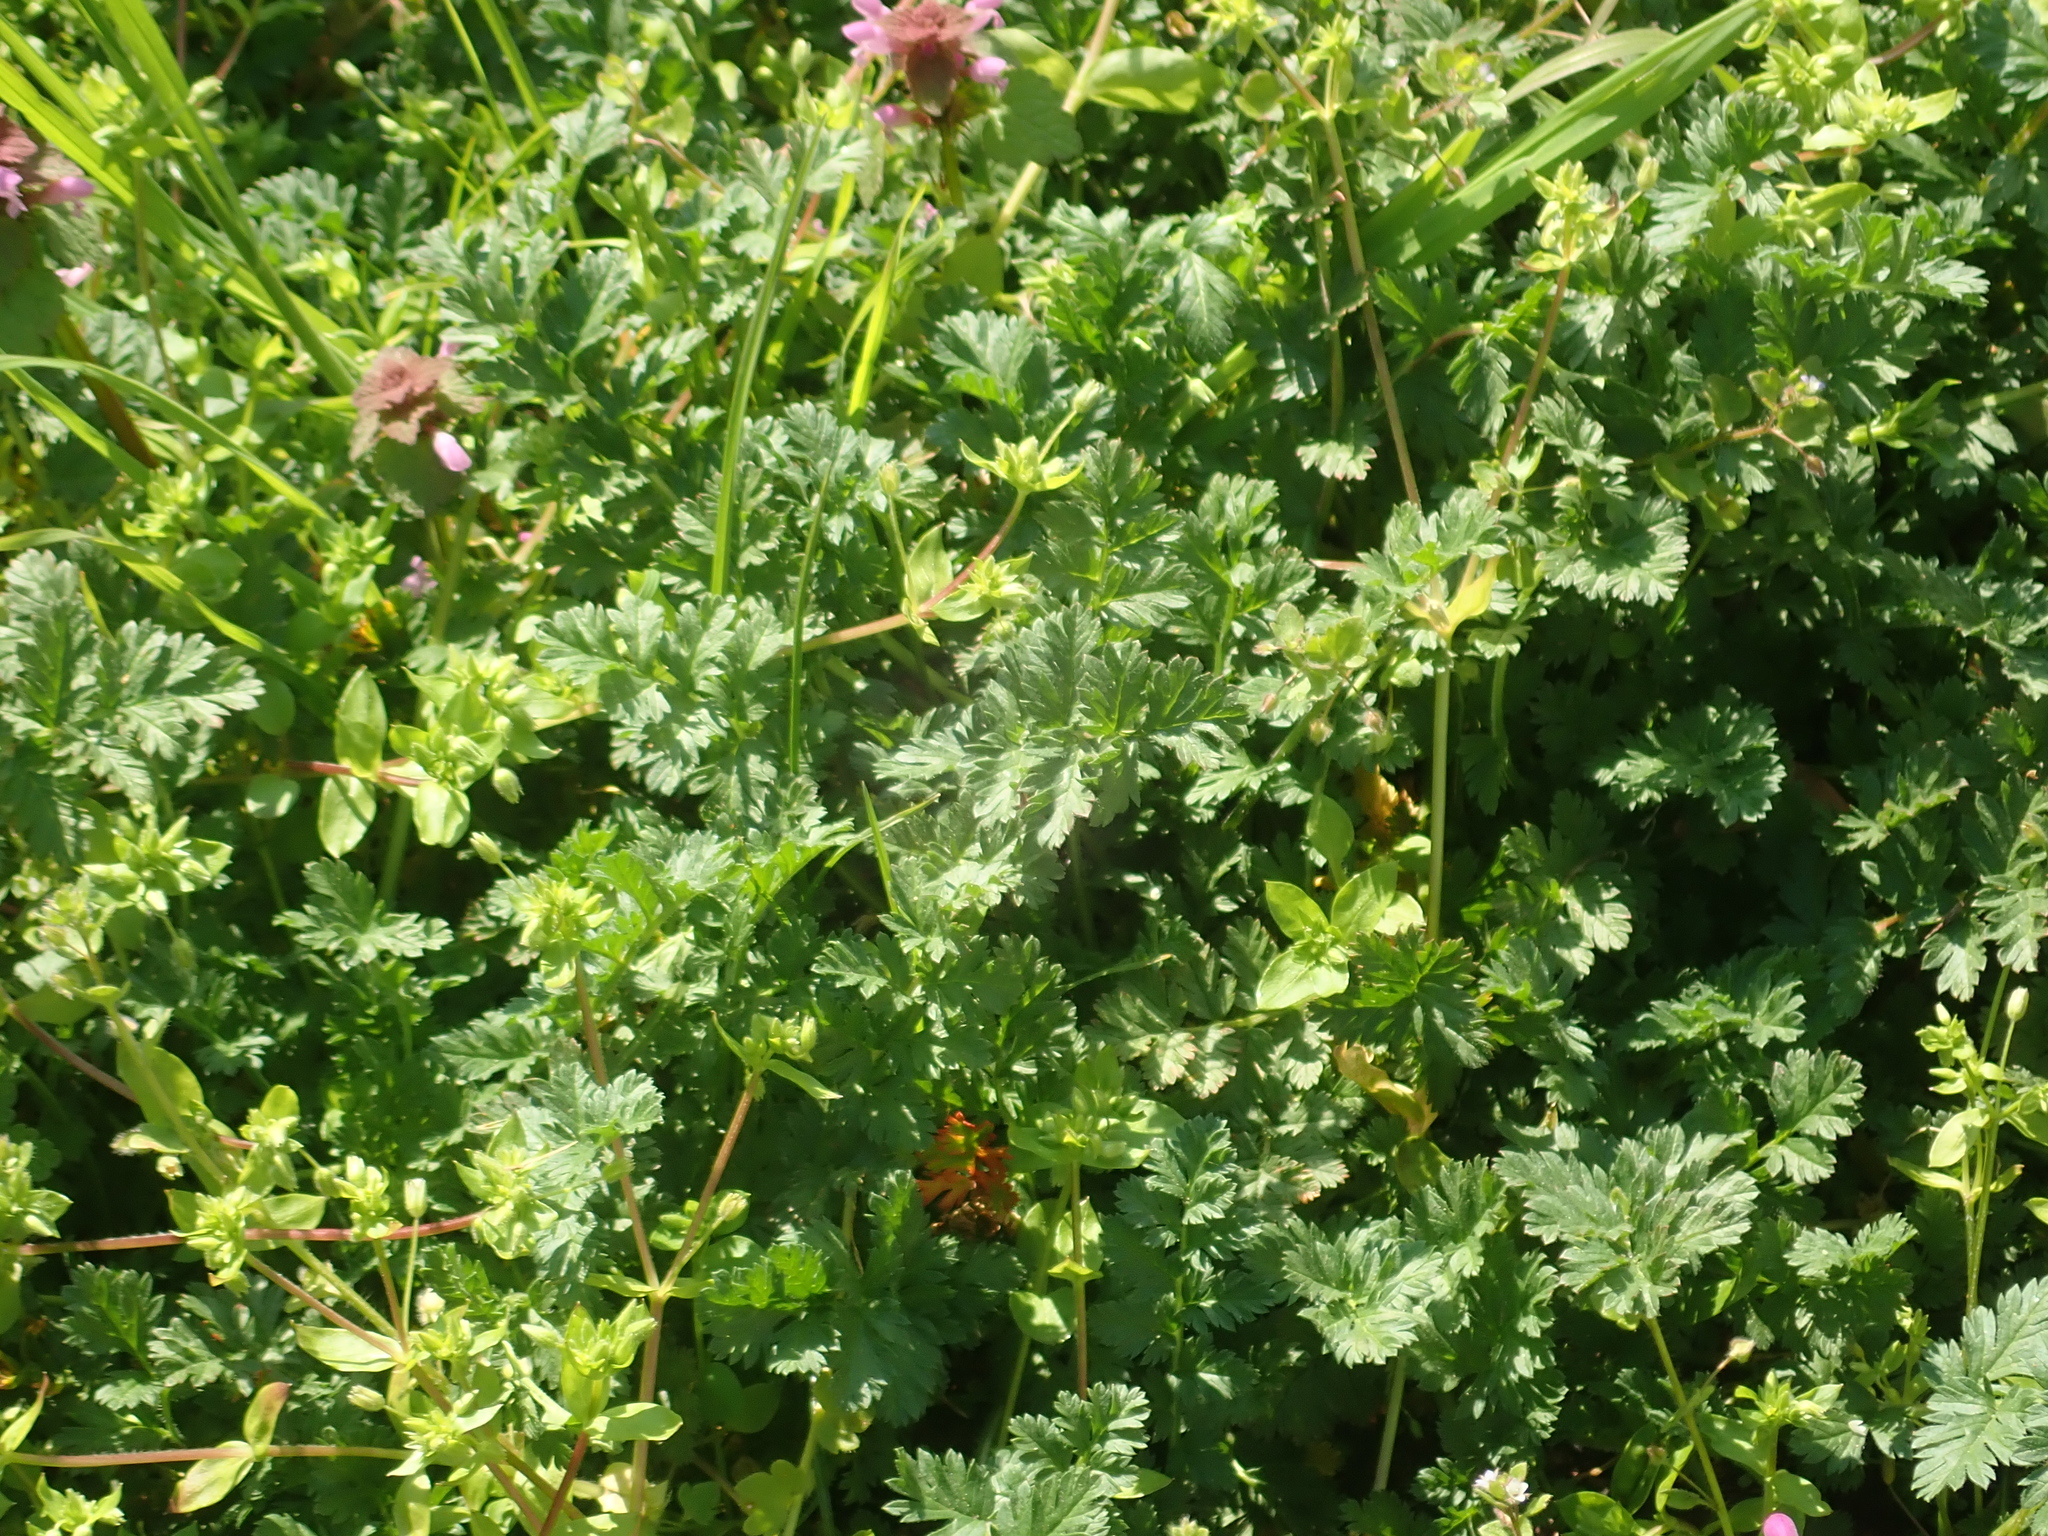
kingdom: Plantae
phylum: Tracheophyta
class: Magnoliopsida
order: Geraniales
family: Geraniaceae
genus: Erodium
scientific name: Erodium cicutarium
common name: Common stork's-bill
